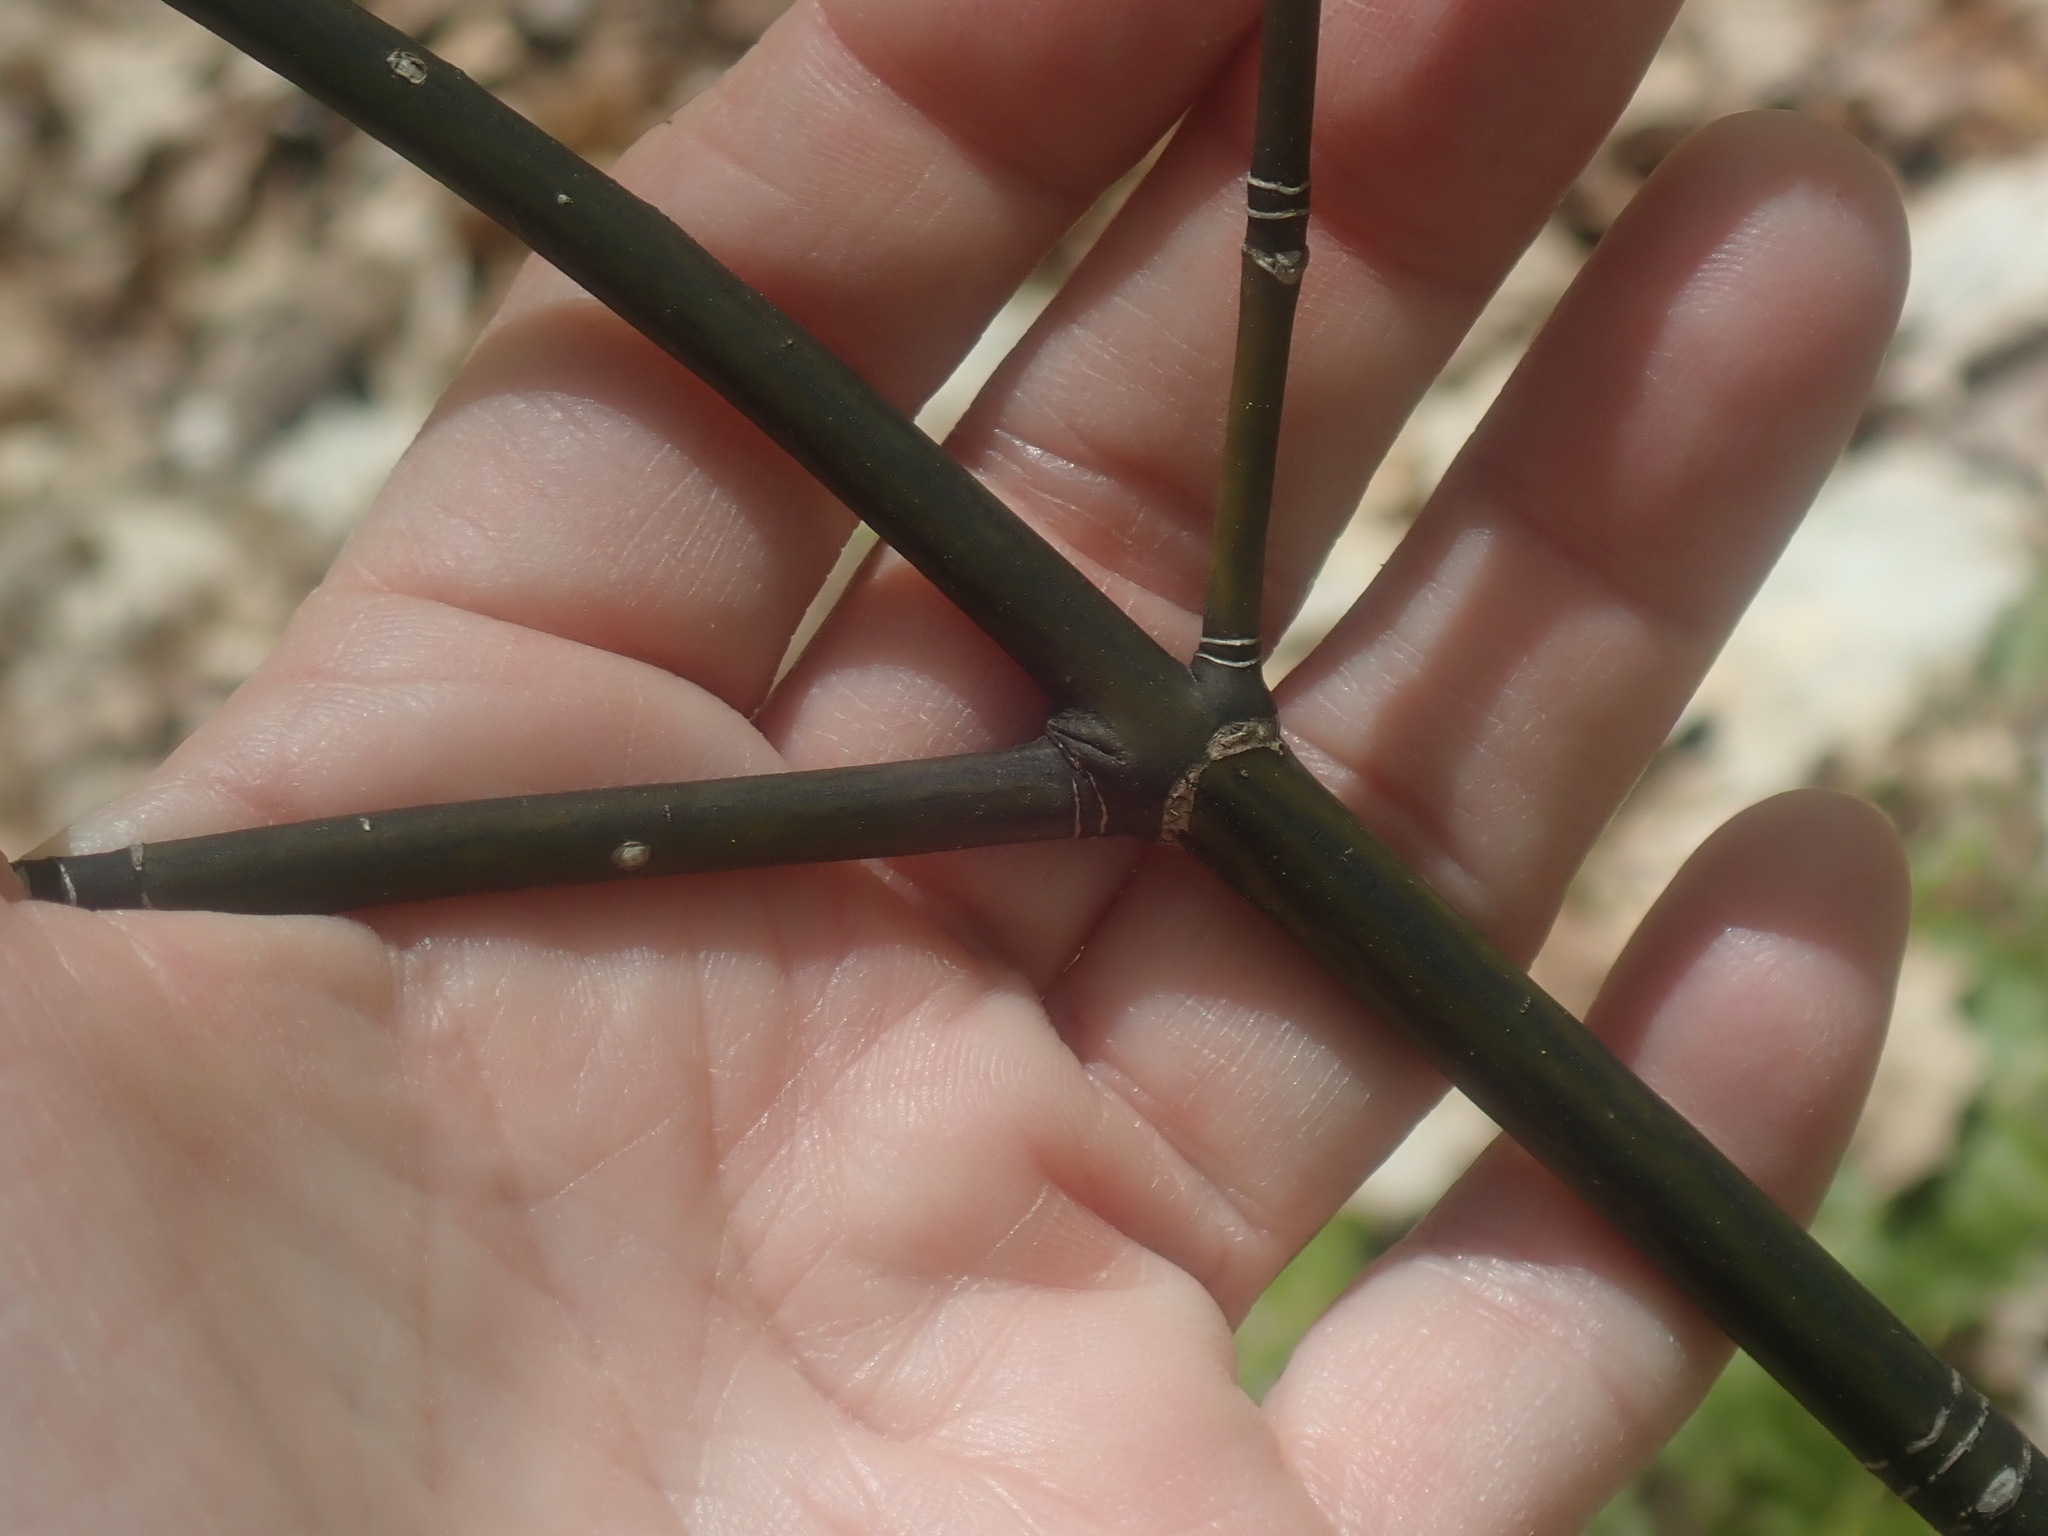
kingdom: Plantae
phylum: Tracheophyta
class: Magnoliopsida
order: Sapindales
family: Sapindaceae
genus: Acer
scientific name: Acer pensylvanicum
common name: Moosewood
